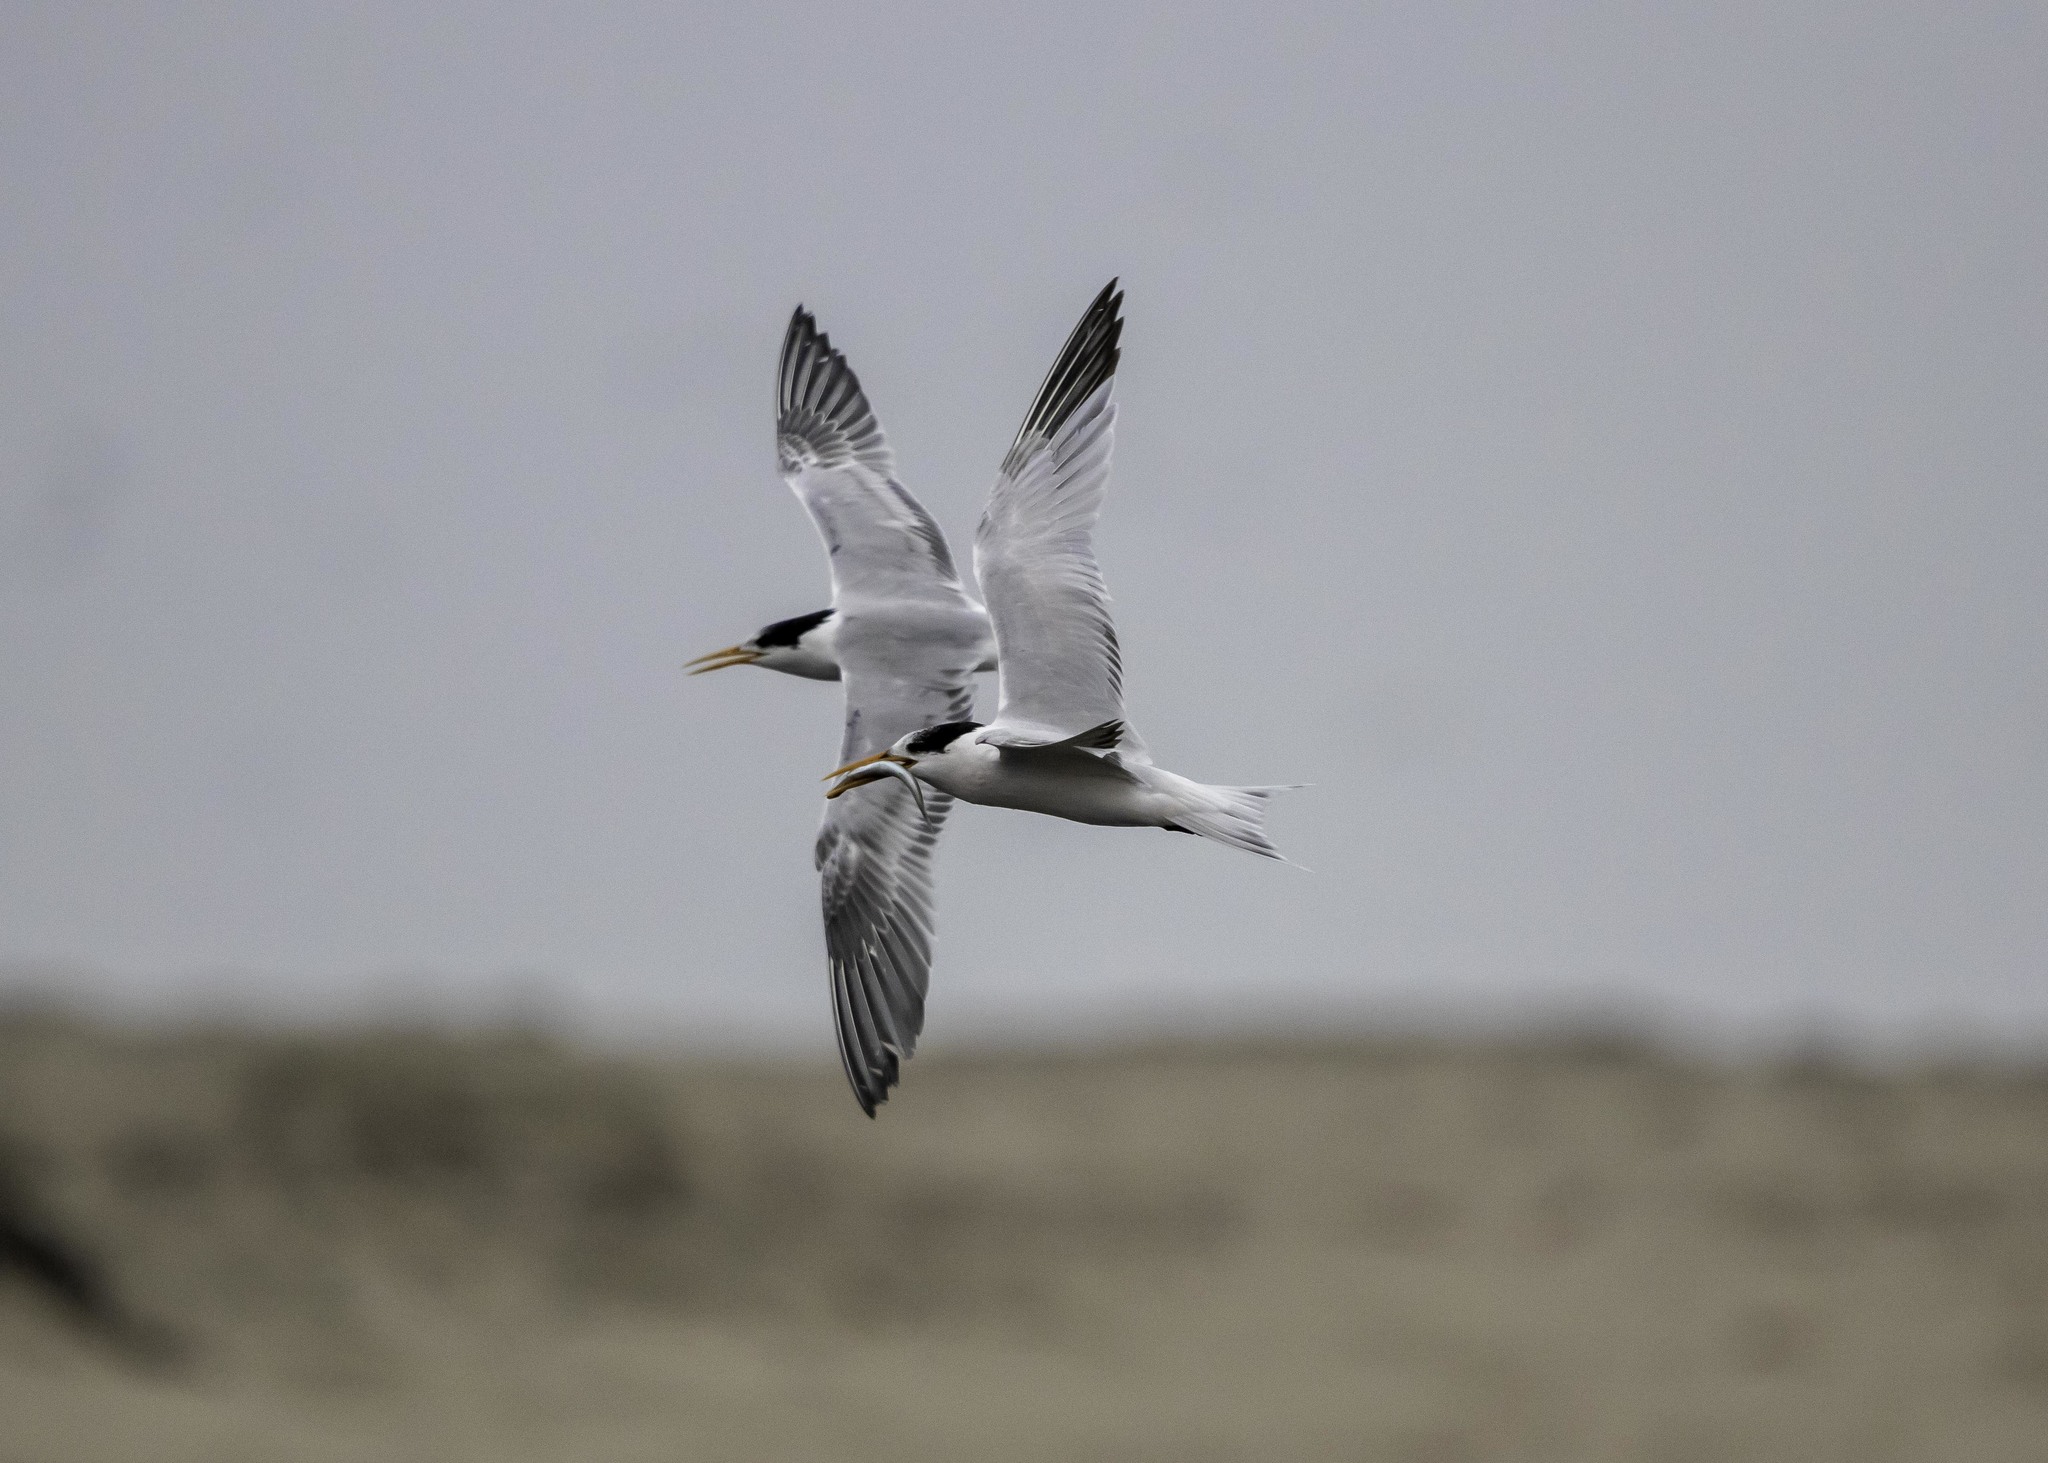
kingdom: Animalia
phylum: Chordata
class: Aves
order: Charadriiformes
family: Laridae
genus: Thalasseus
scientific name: Thalasseus elegans
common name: Elegant tern
